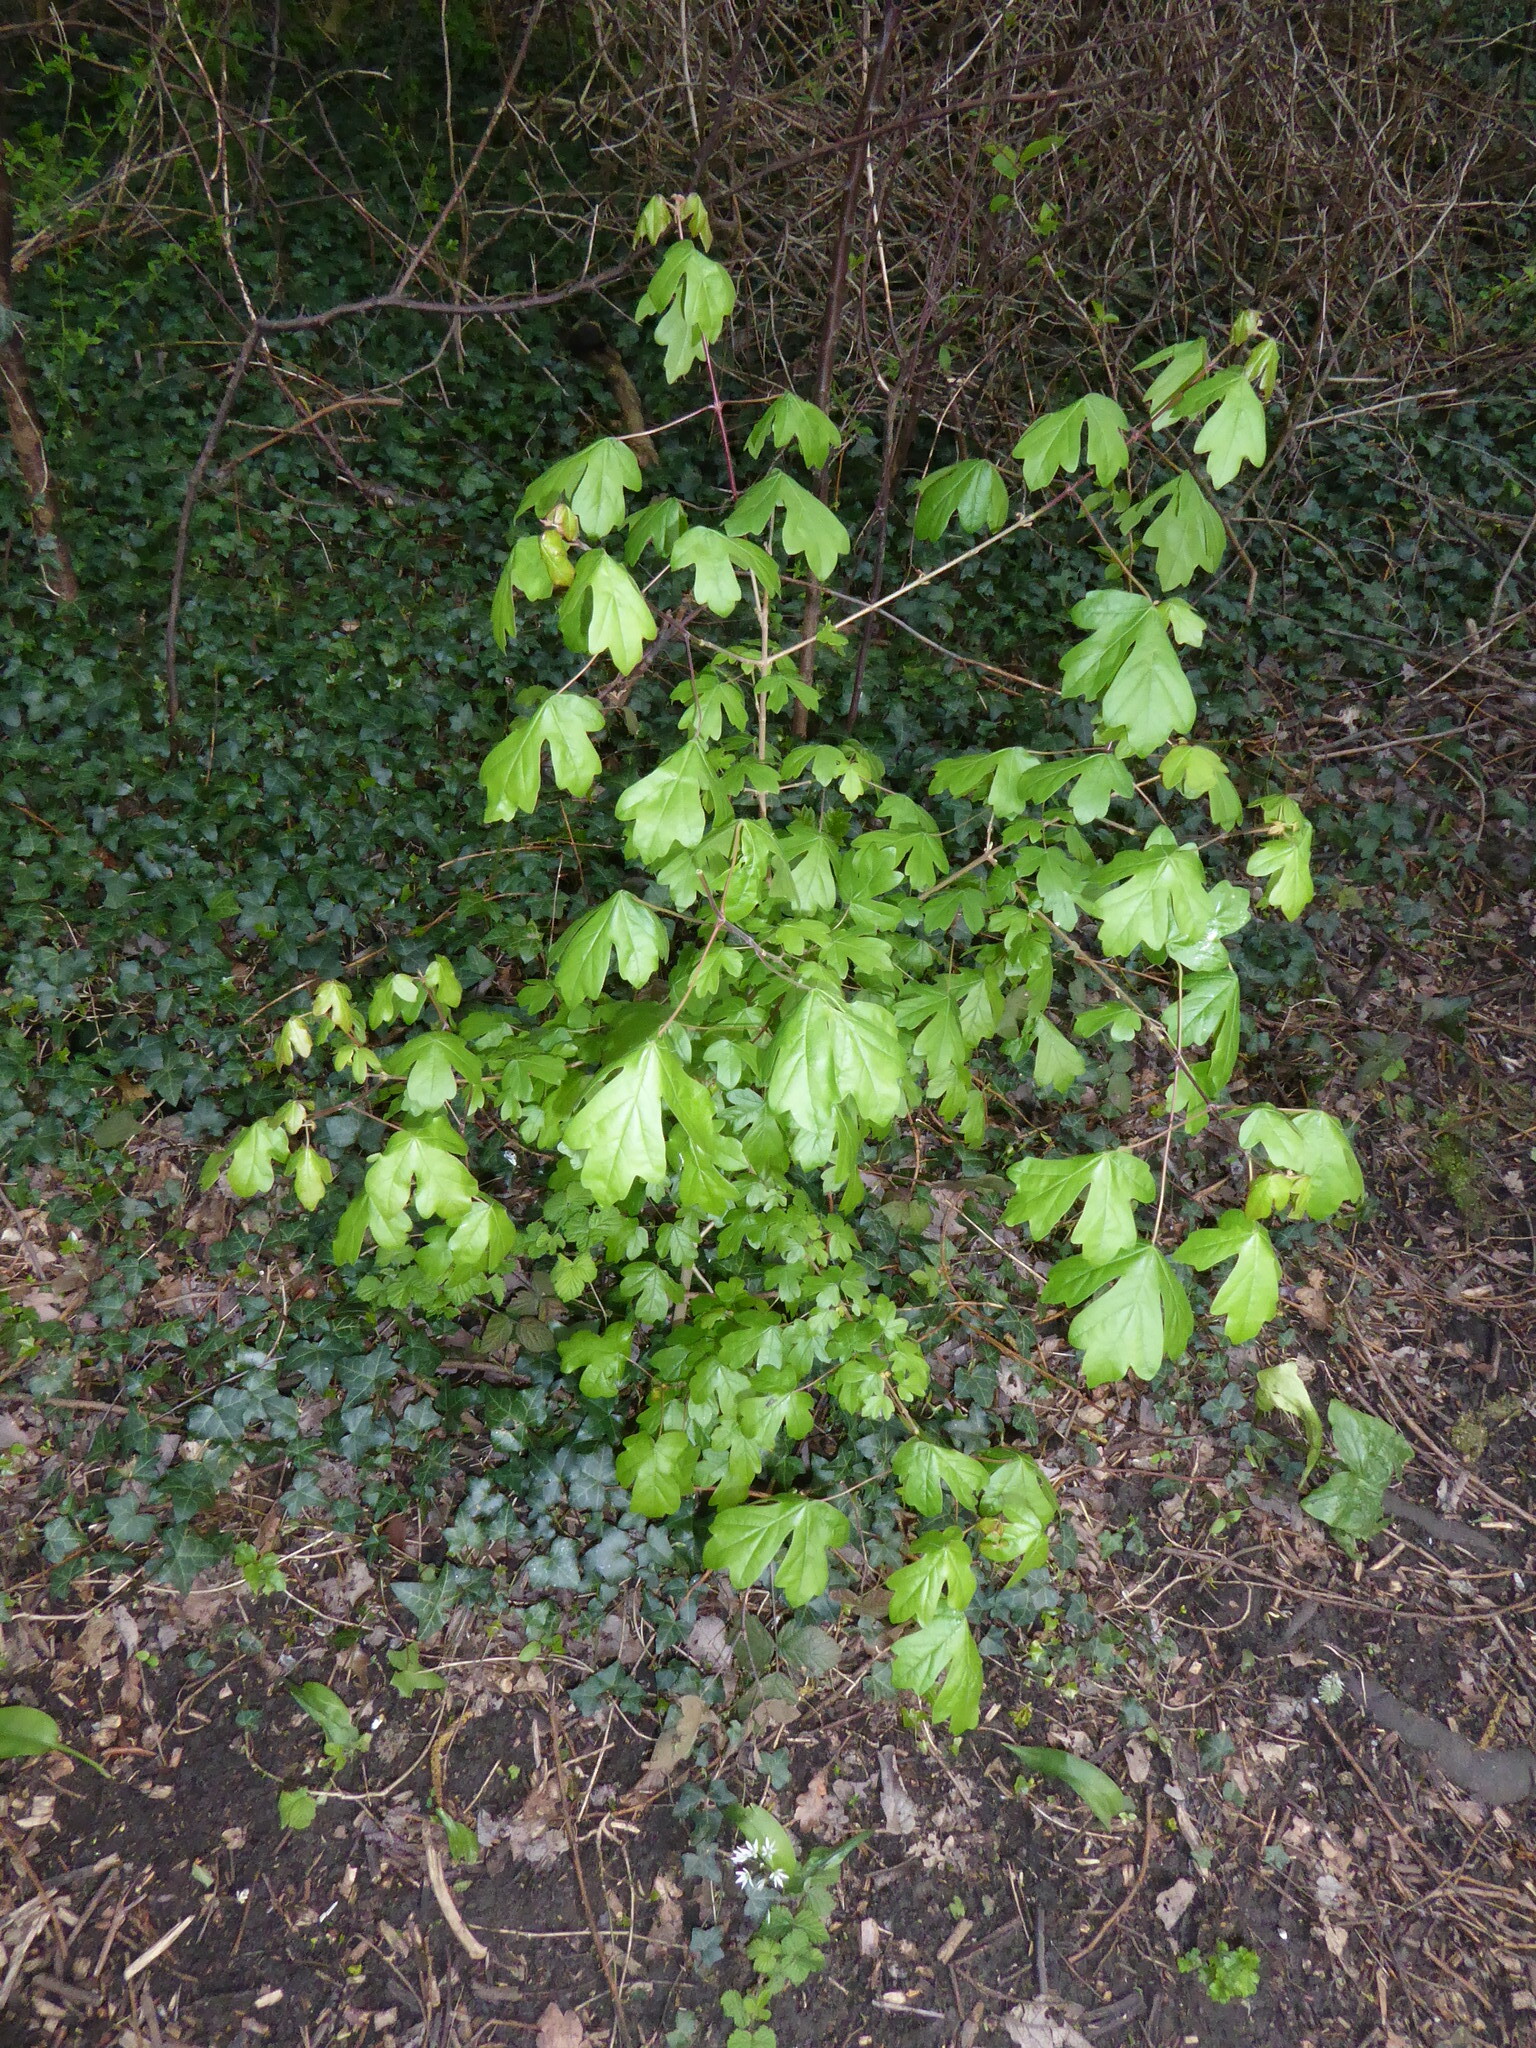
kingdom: Plantae
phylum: Tracheophyta
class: Magnoliopsida
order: Sapindales
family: Sapindaceae
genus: Acer
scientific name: Acer campestre
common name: Field maple
